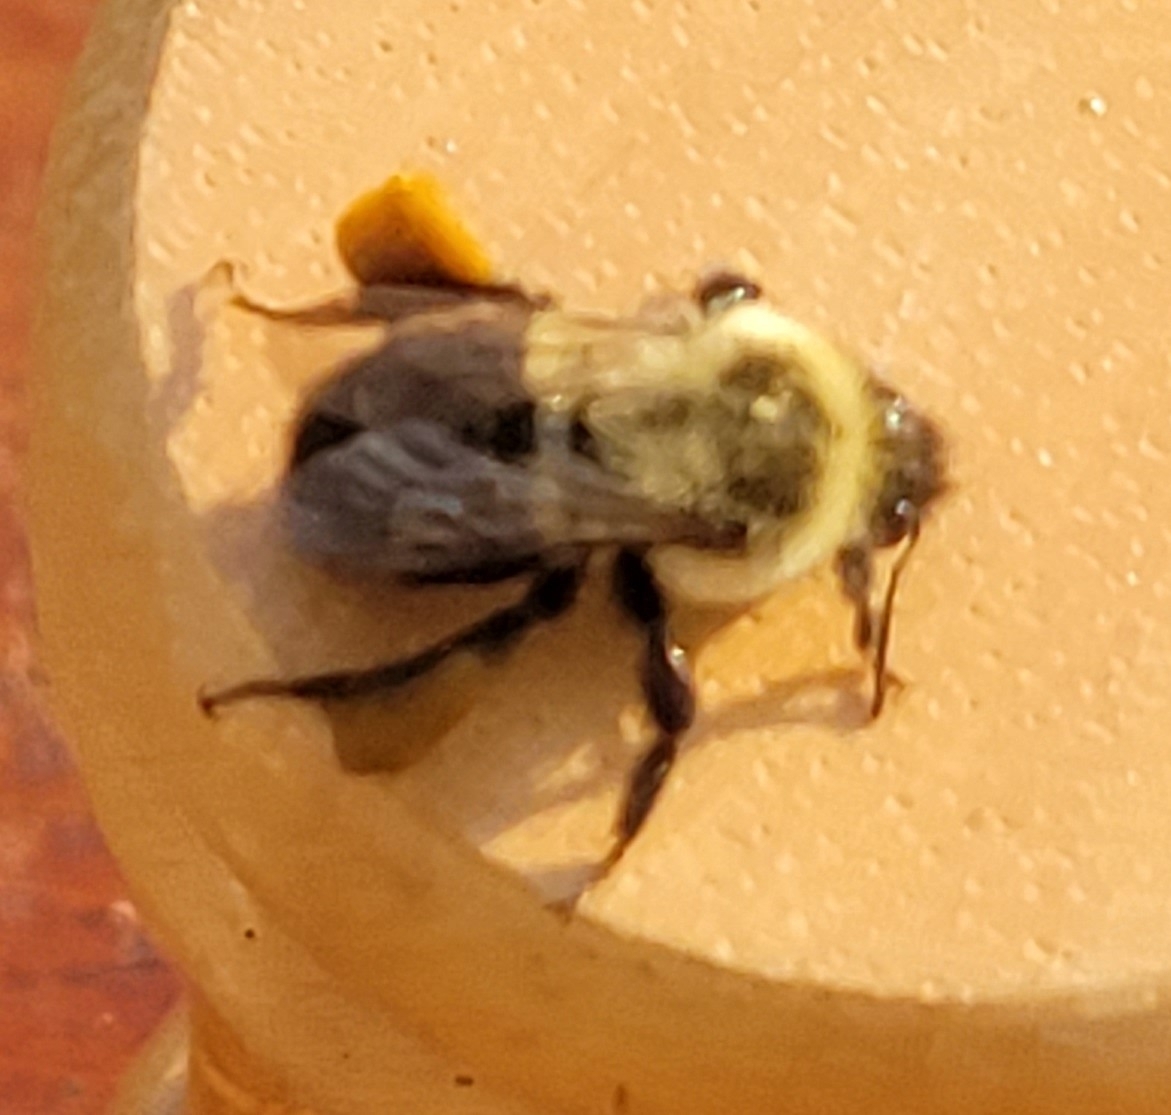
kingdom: Animalia
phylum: Arthropoda
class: Insecta
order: Hymenoptera
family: Apidae
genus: Bombus
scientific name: Bombus impatiens
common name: Common eastern bumble bee
